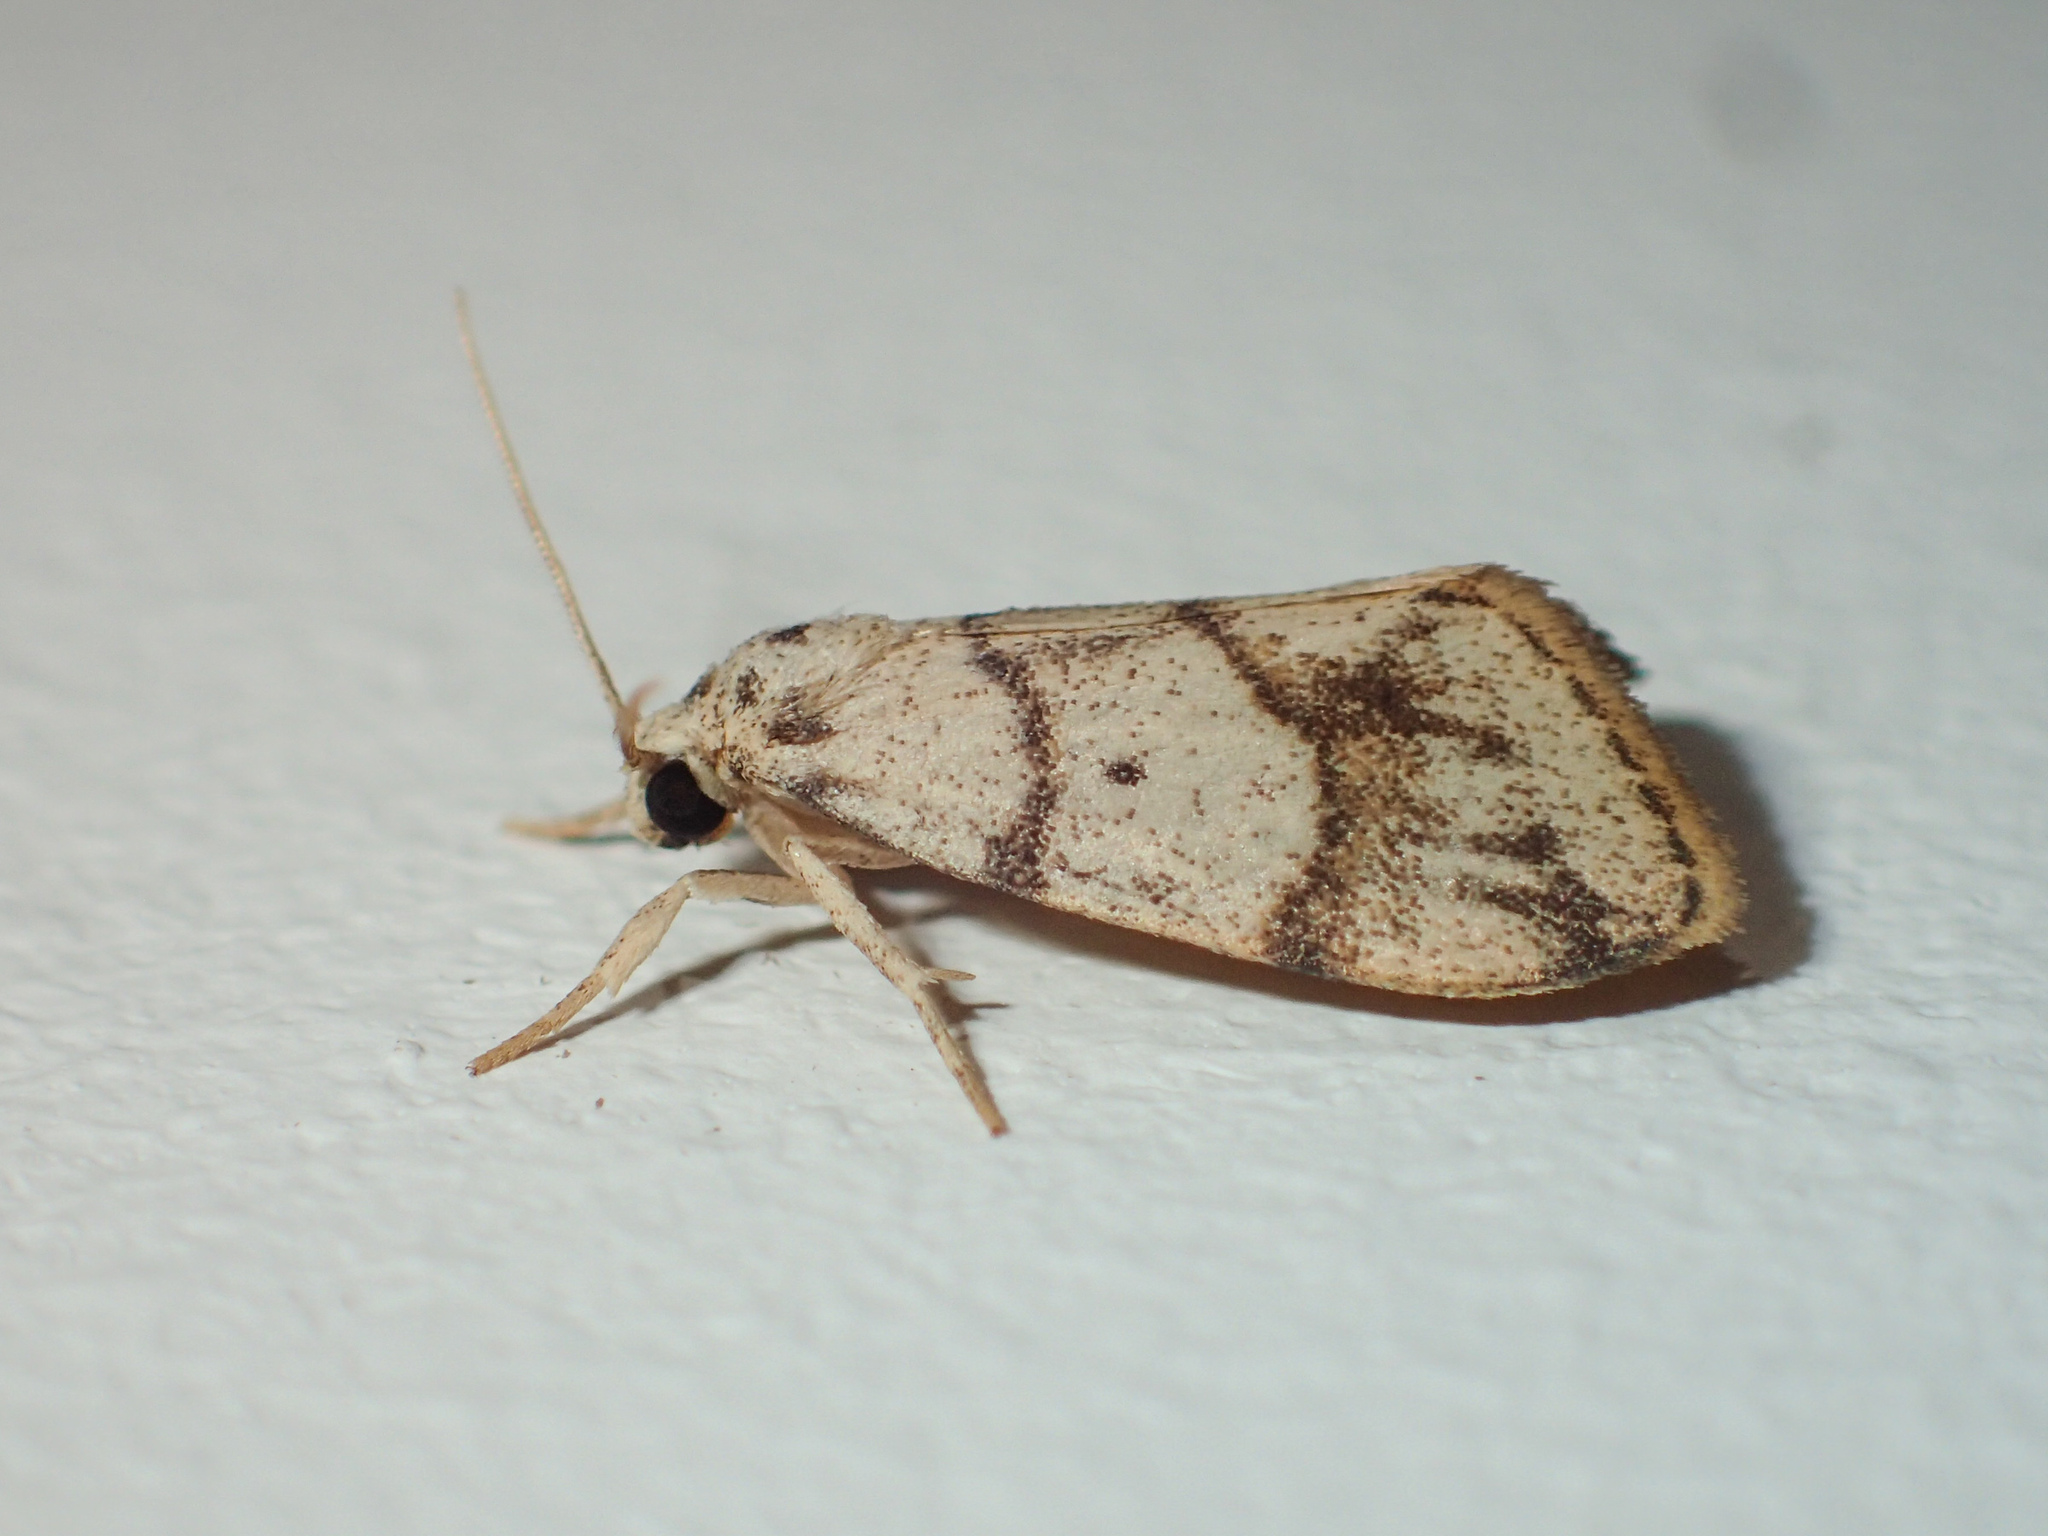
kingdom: Animalia
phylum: Arthropoda
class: Insecta
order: Lepidoptera
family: Erebidae
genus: Holocraspedon
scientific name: Holocraspedon bilineata
